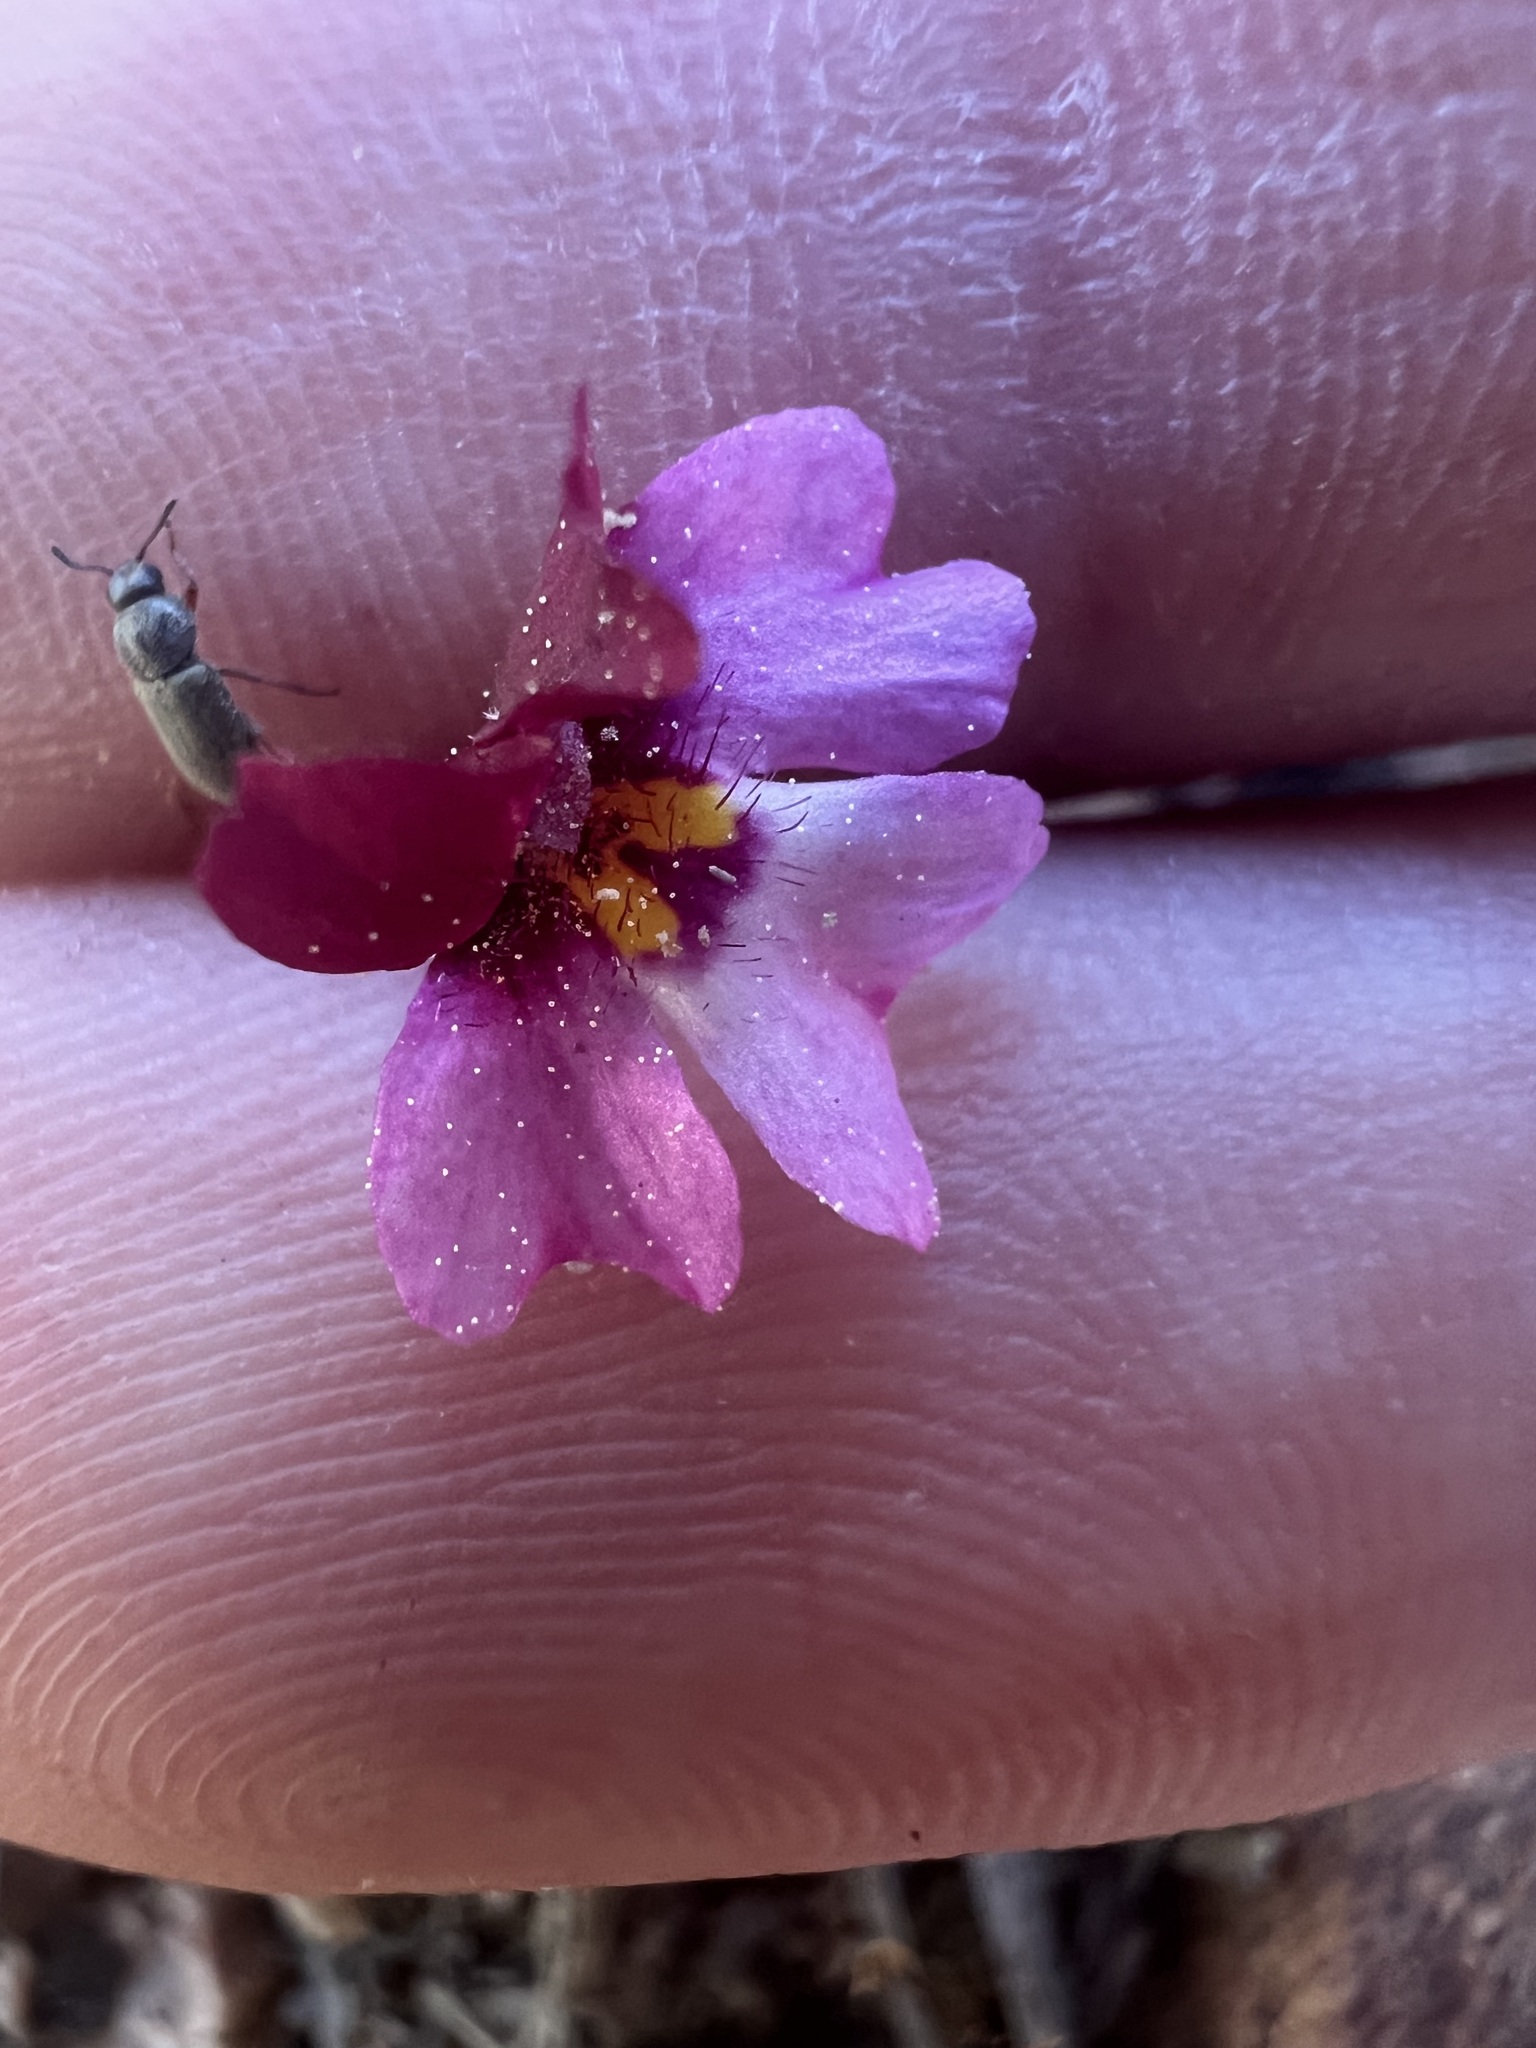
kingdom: Plantae
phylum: Tracheophyta
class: Magnoliopsida
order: Lamiales
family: Phrymaceae
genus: Erythranthe
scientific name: Erythranthe purpurea
